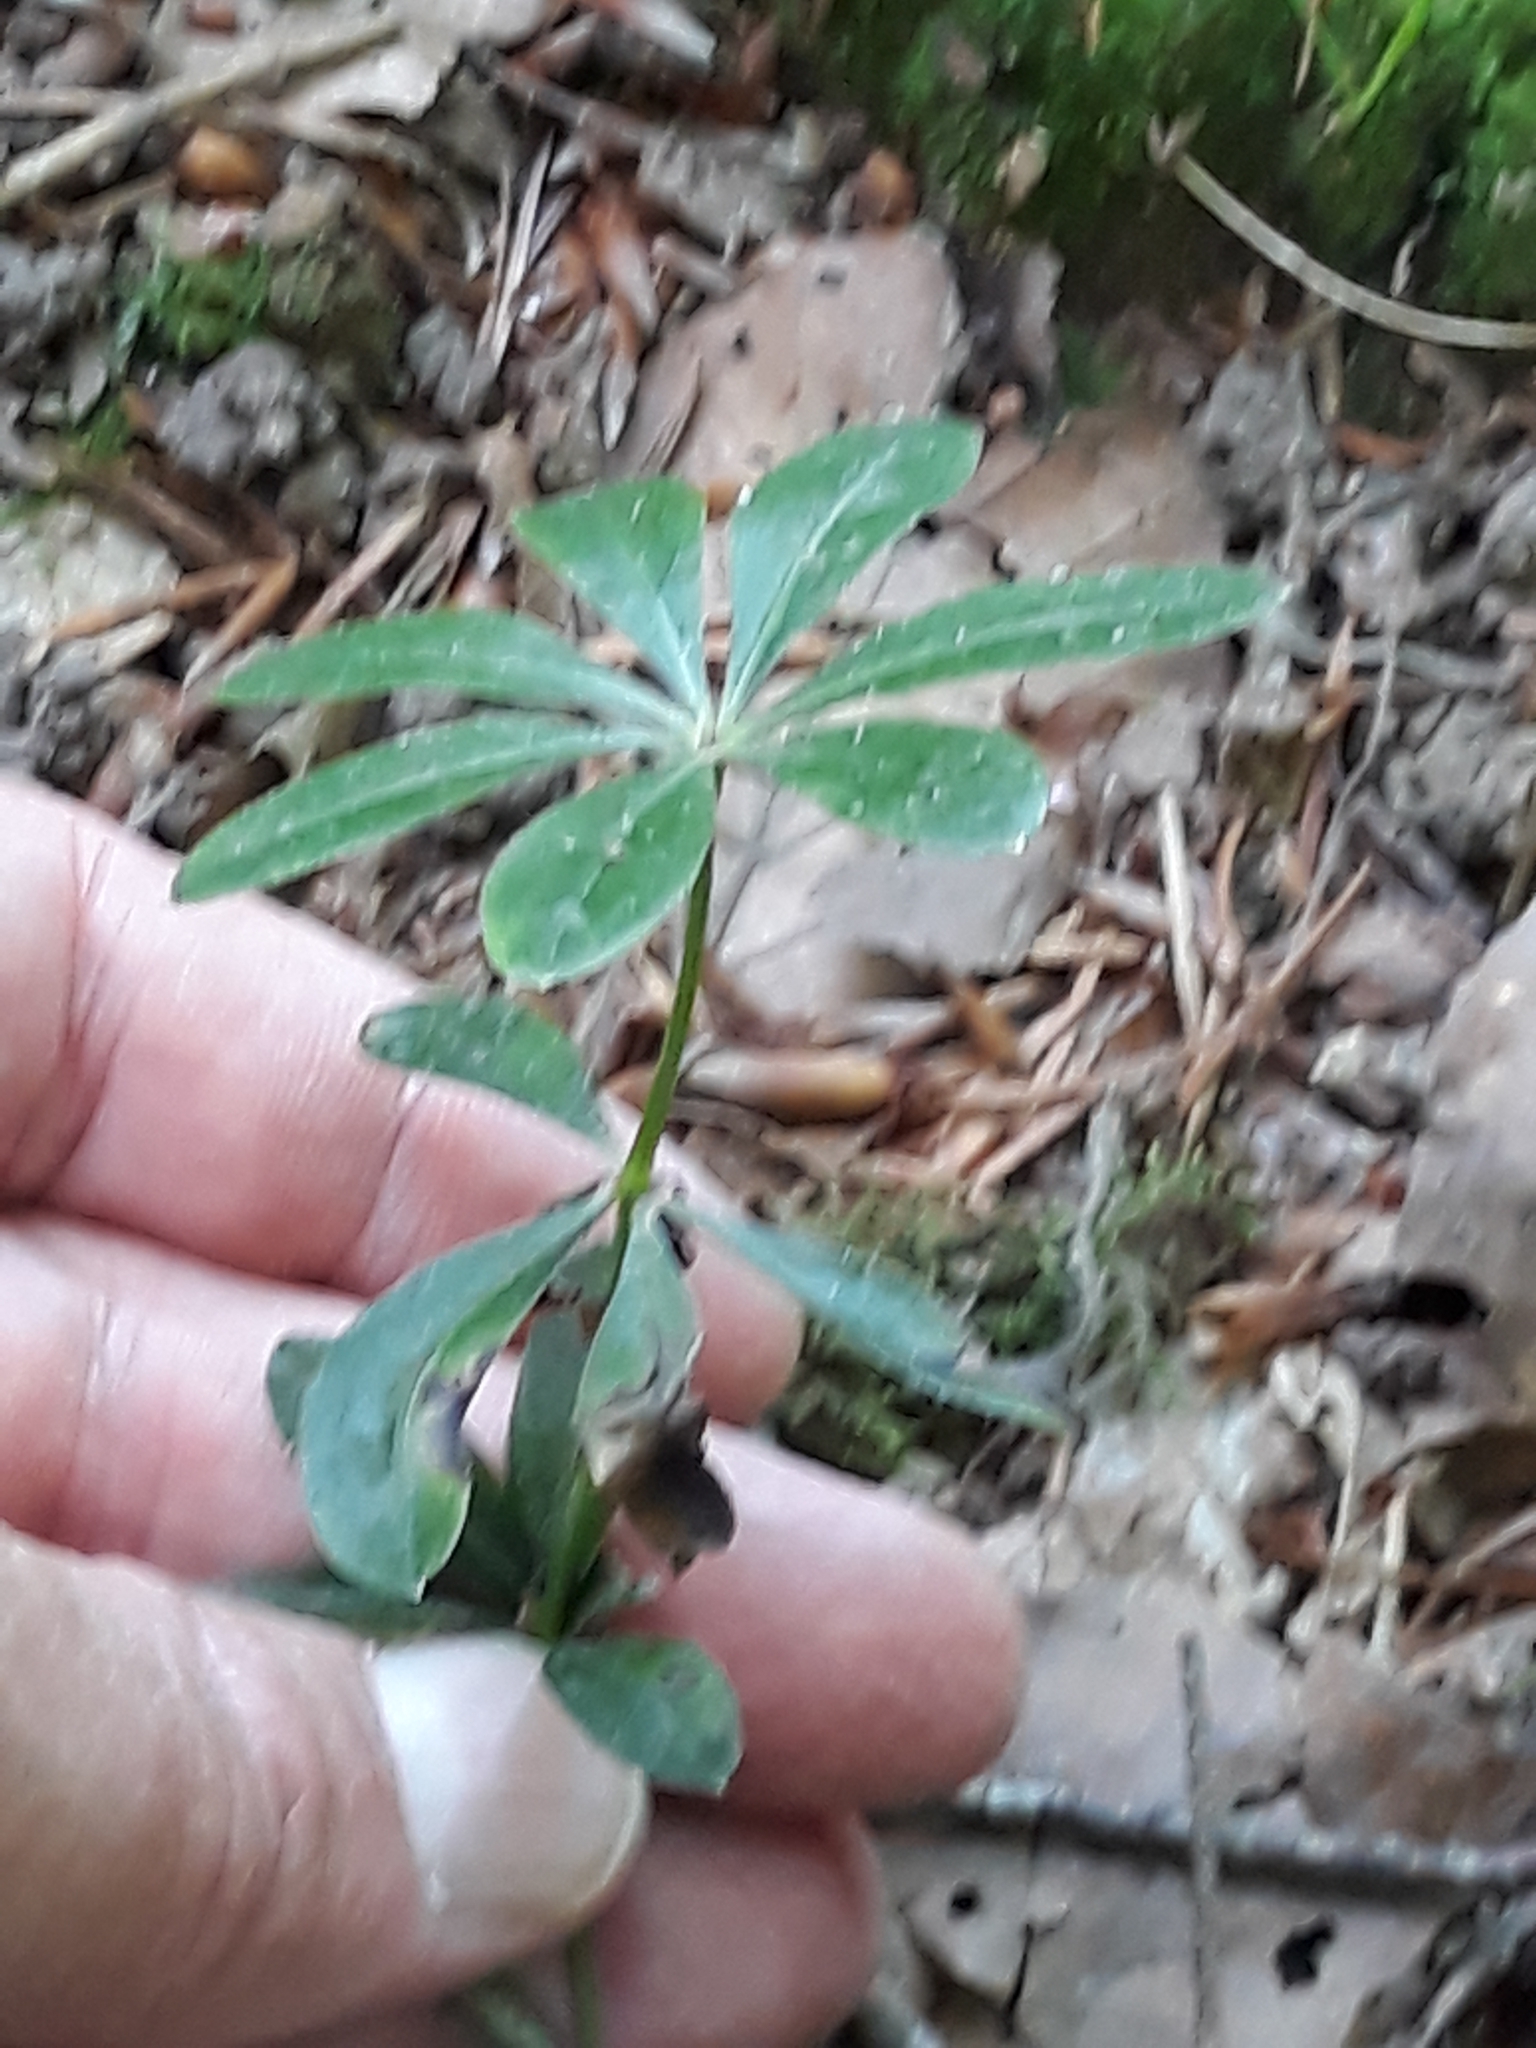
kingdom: Plantae
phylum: Tracheophyta
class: Magnoliopsida
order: Gentianales
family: Rubiaceae
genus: Galium
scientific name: Galium odoratum
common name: Sweet woodruff
